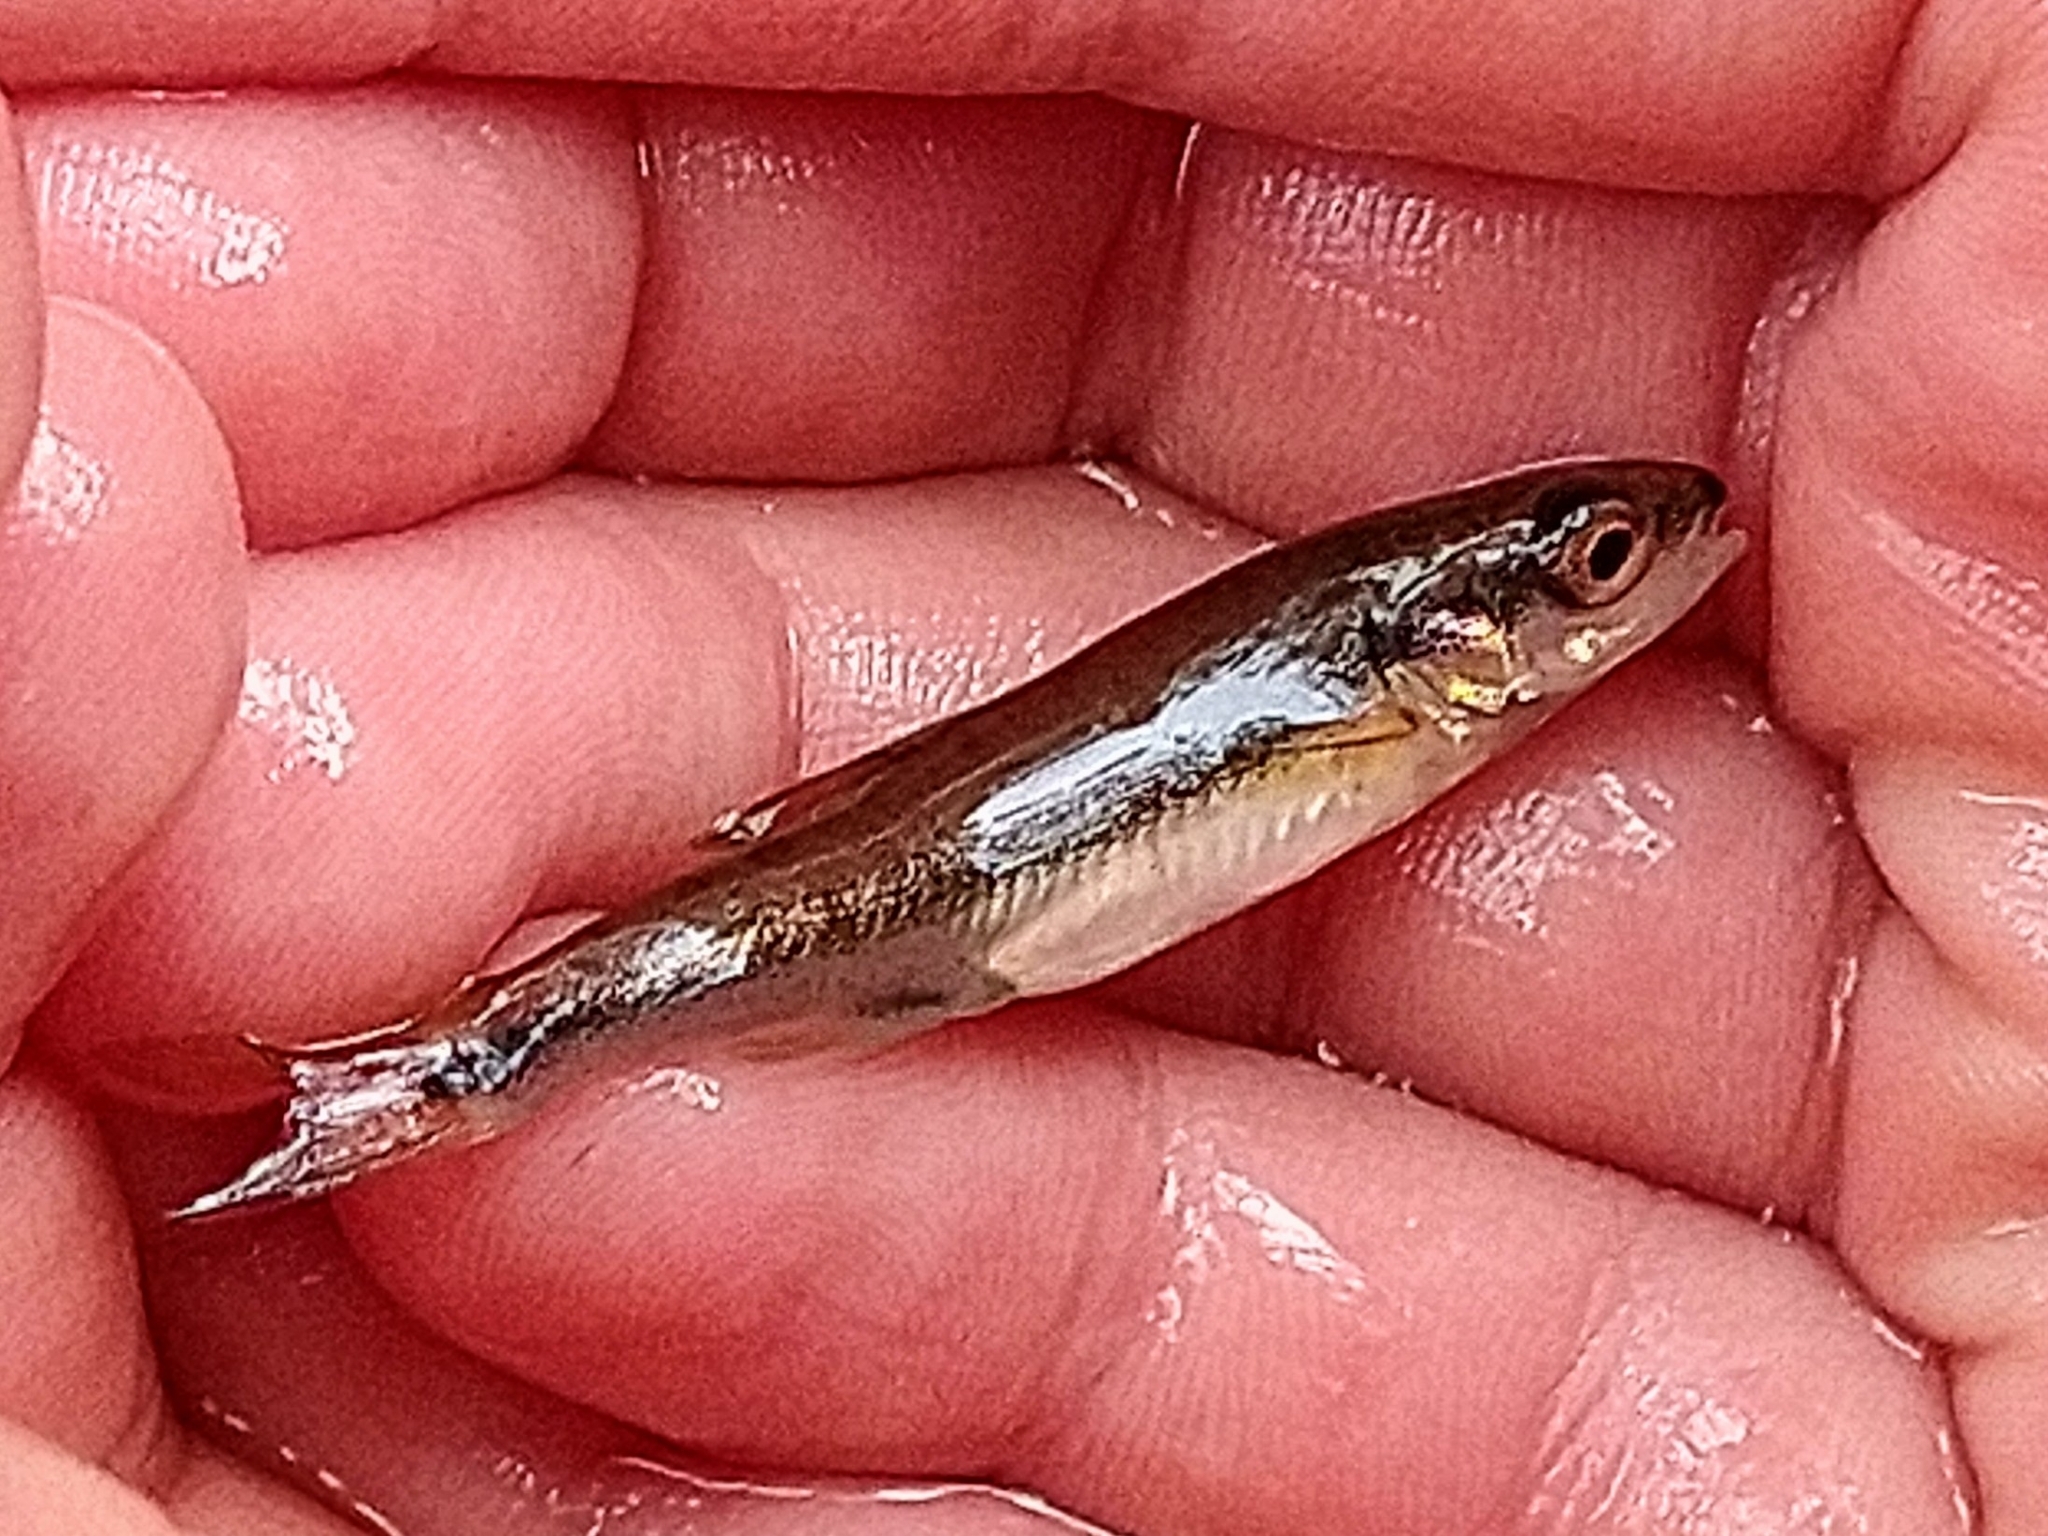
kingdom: Animalia
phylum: Chordata
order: Cypriniformes
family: Cyprinidae
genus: Phoxinus
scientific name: Phoxinus phoxinus
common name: Minnow
